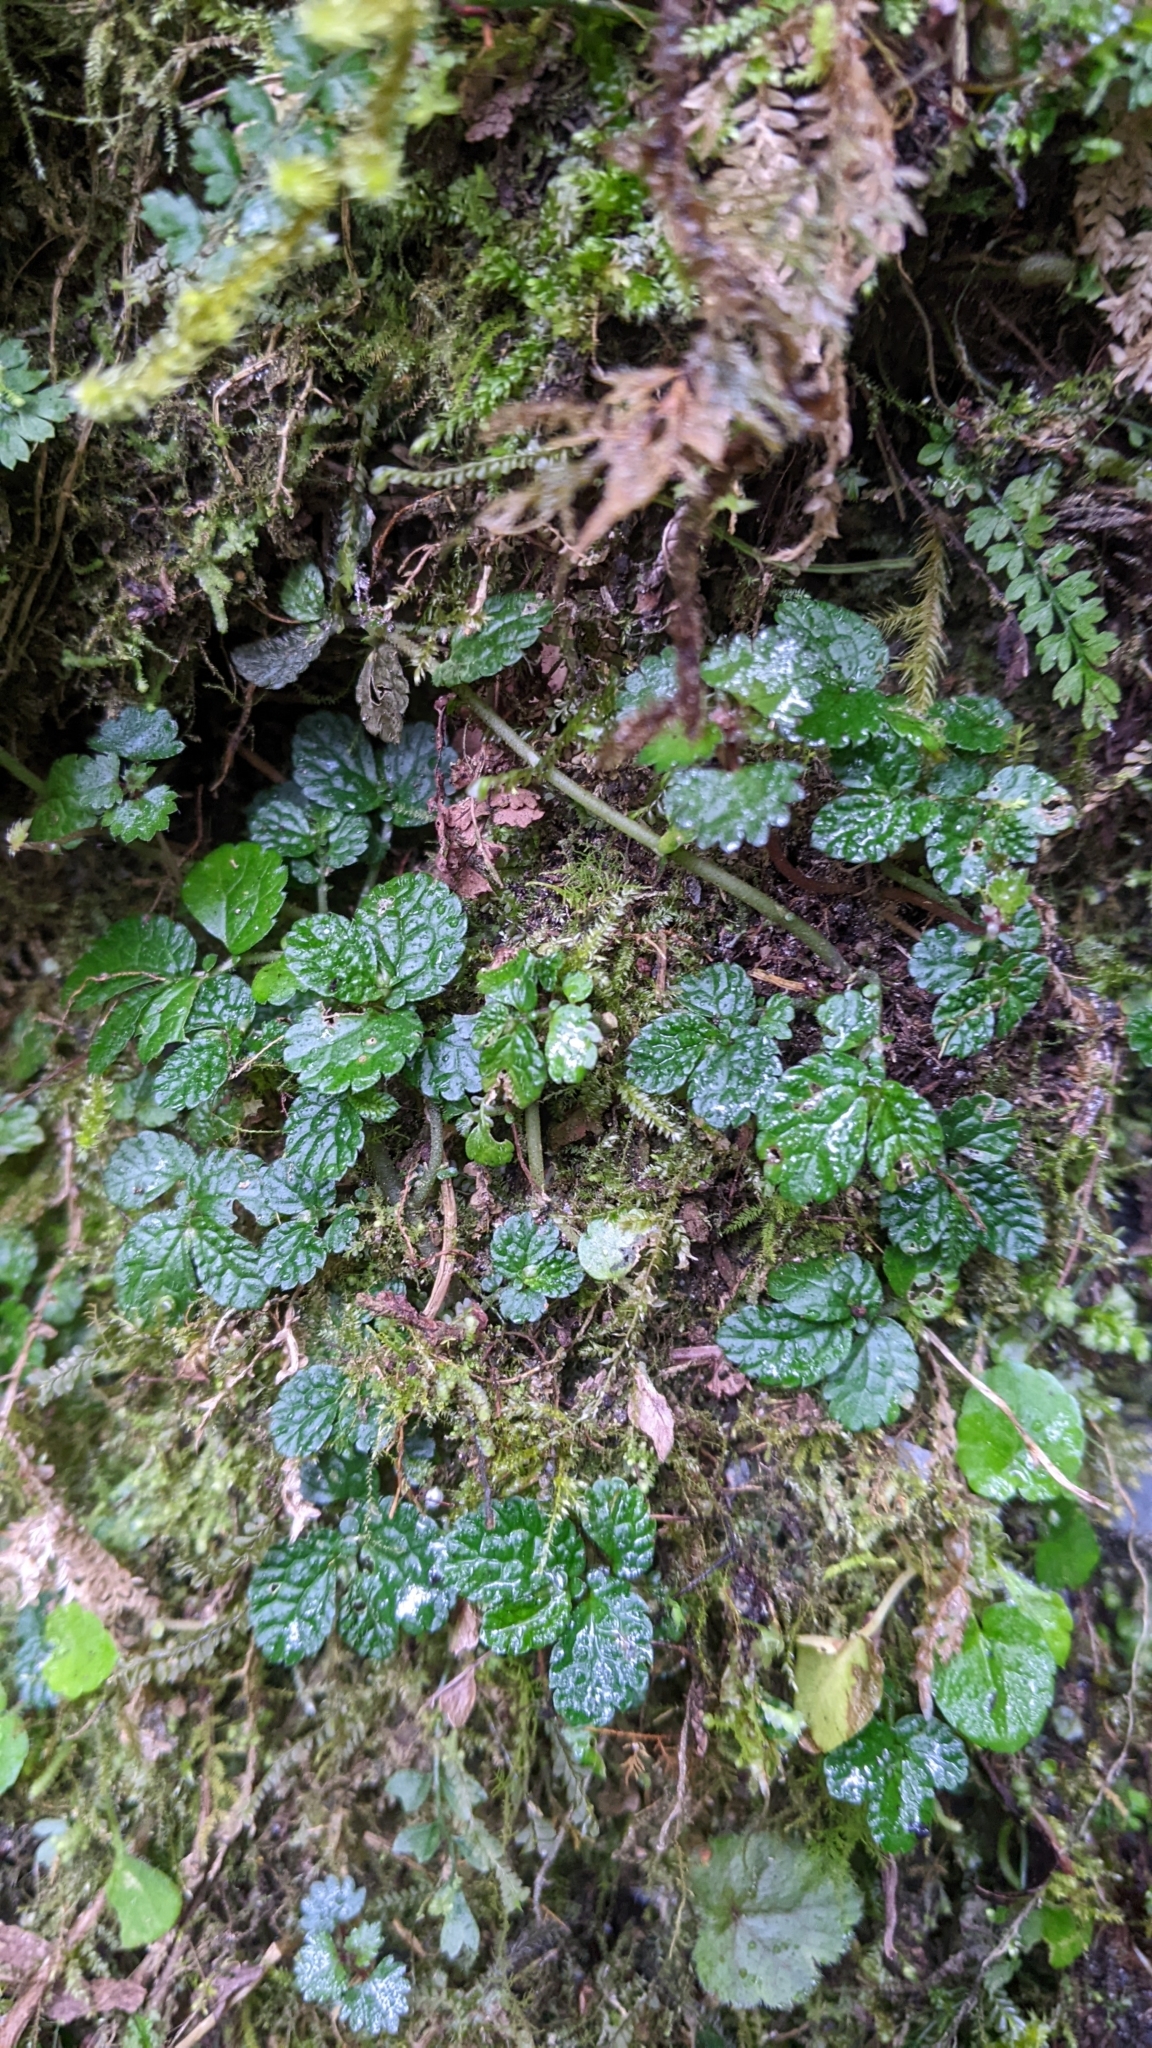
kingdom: Plantae
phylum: Tracheophyta
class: Magnoliopsida
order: Rosales
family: Urticaceae
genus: Elatostema
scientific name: Elatostema parvum
